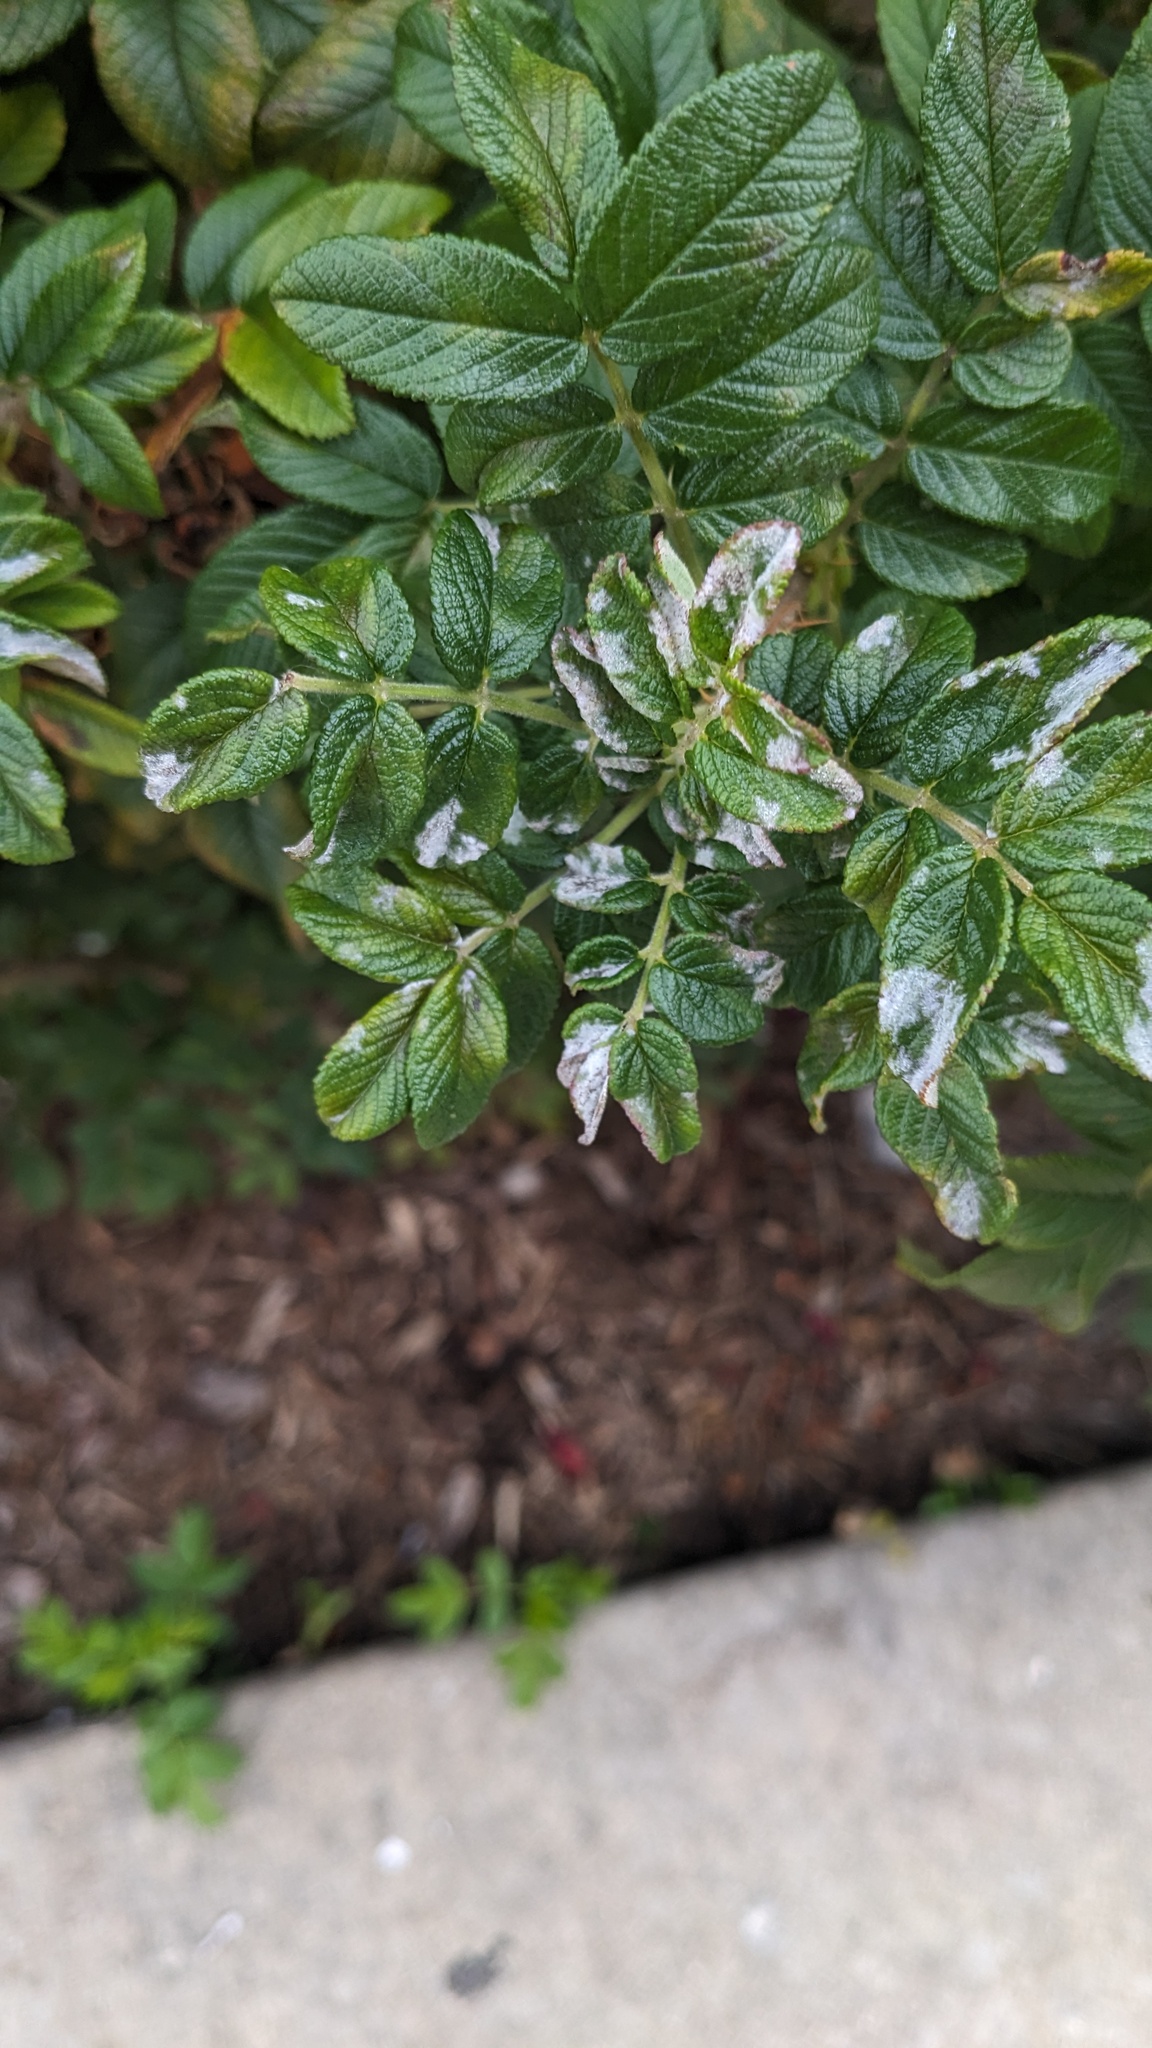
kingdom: Fungi
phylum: Ascomycota
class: Leotiomycetes
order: Helotiales
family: Erysiphaceae
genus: Podosphaera
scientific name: Podosphaera pannosa
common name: Rose mildew
